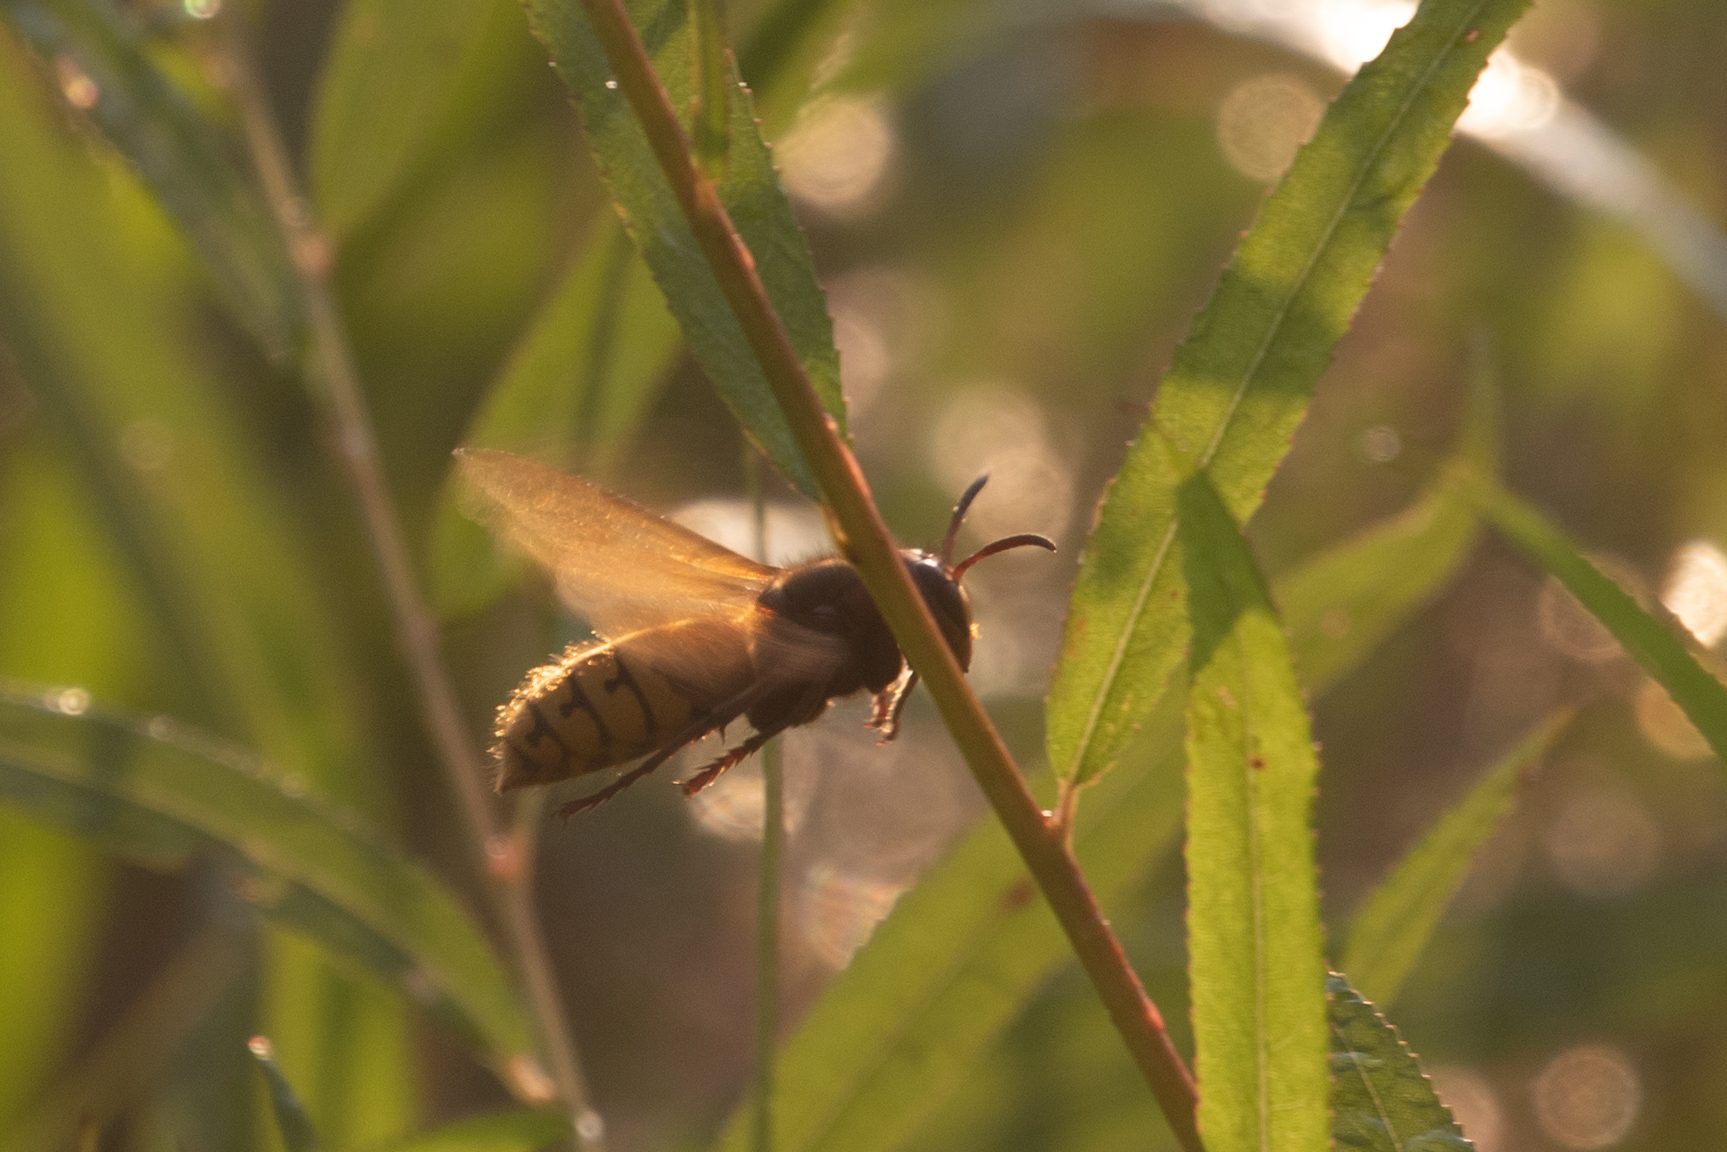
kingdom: Animalia
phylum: Arthropoda
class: Insecta
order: Hymenoptera
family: Vespidae
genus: Vespa
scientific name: Vespa crabro
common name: Hornet
